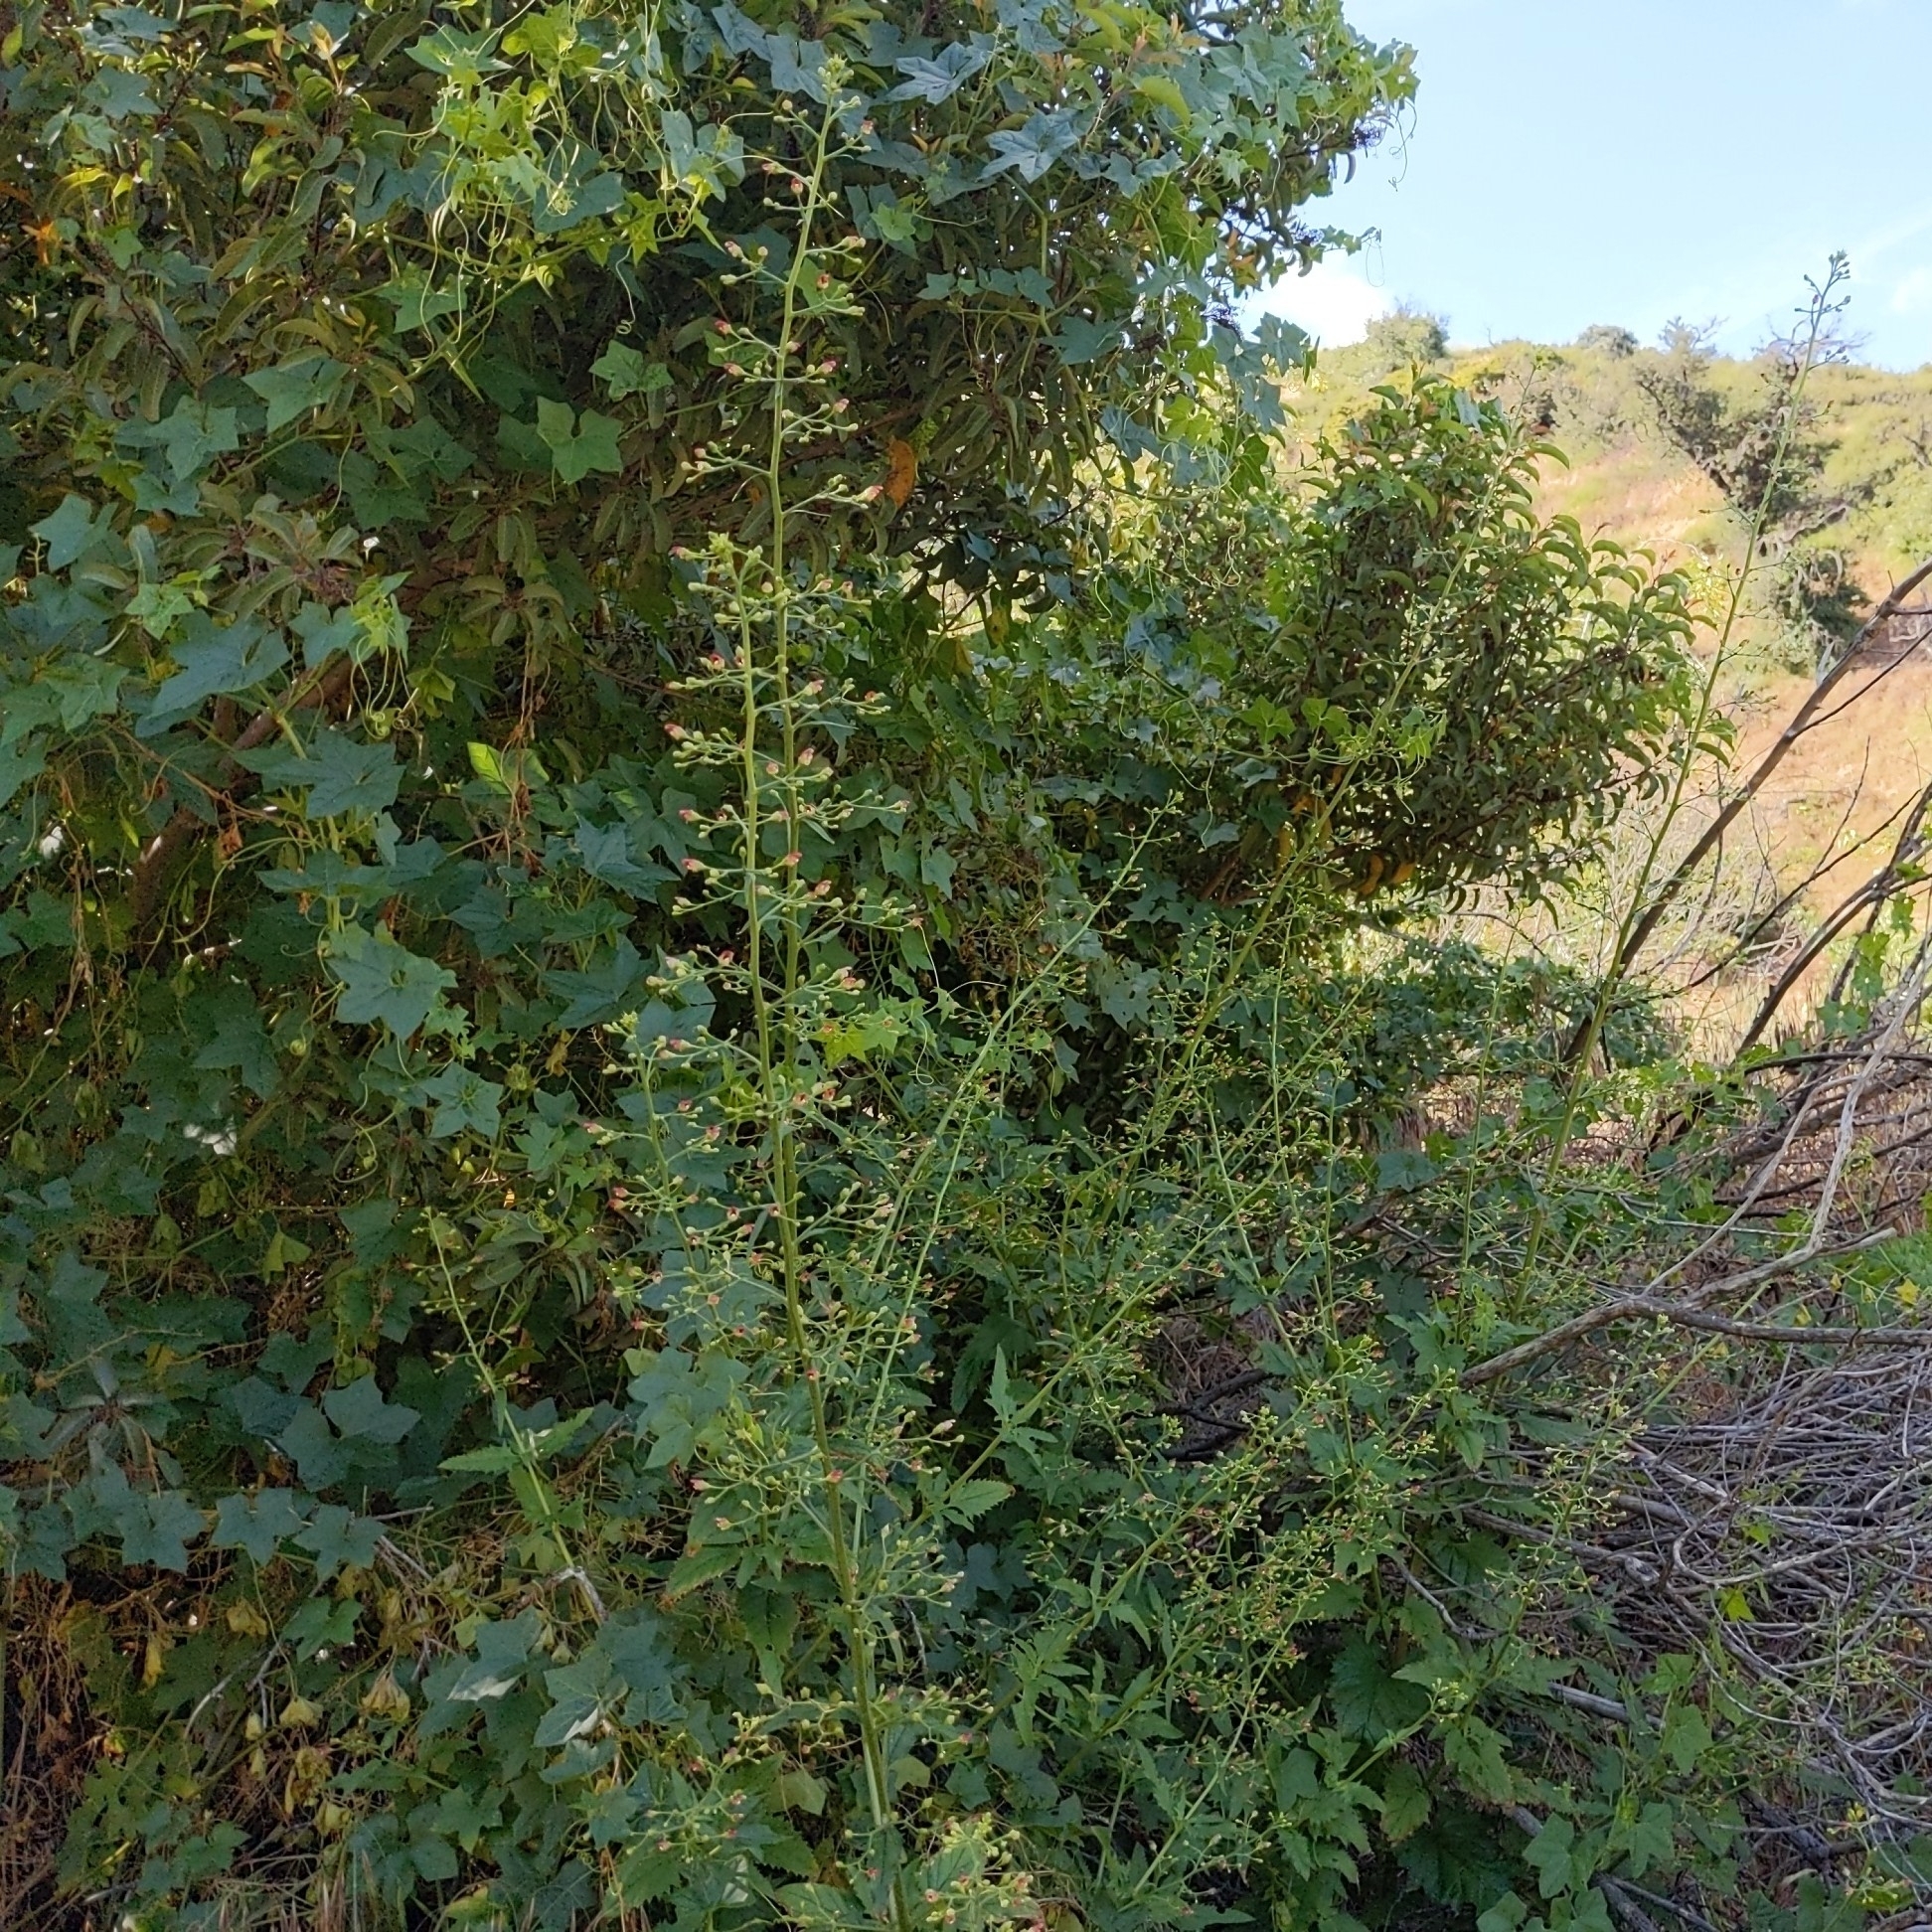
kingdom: Plantae
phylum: Tracheophyta
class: Magnoliopsida
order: Lamiales
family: Scrophulariaceae
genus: Scrophularia
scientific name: Scrophularia californica
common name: California figwort
